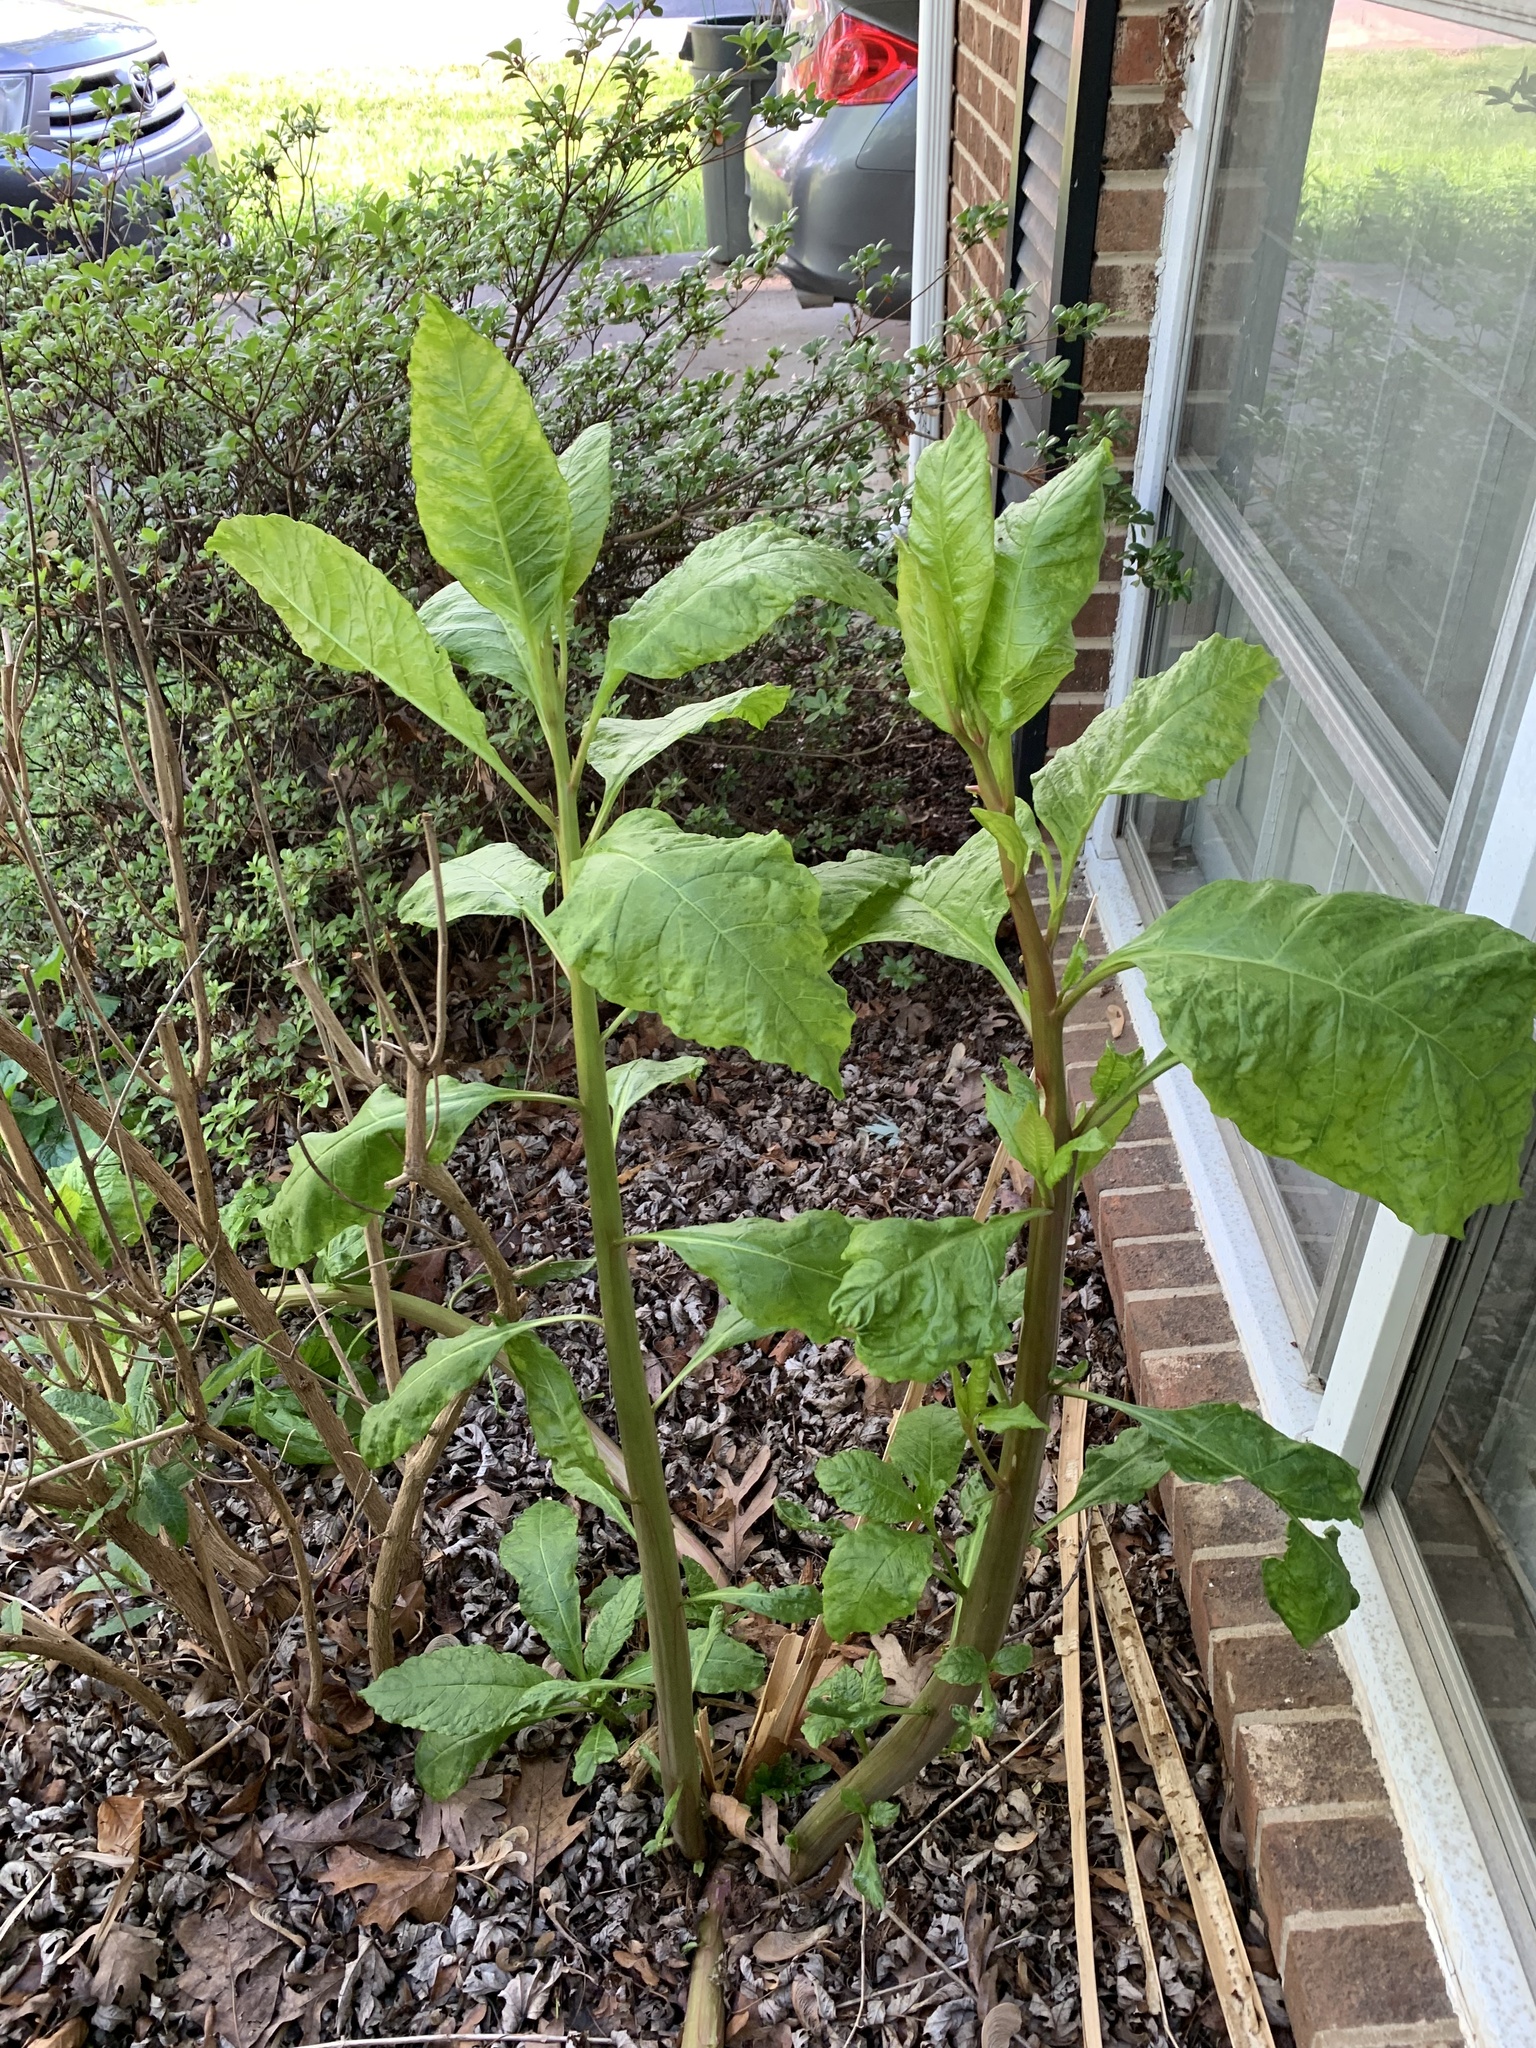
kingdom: Plantae
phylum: Tracheophyta
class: Magnoliopsida
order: Caryophyllales
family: Phytolaccaceae
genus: Phytolacca
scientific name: Phytolacca americana
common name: American pokeweed
